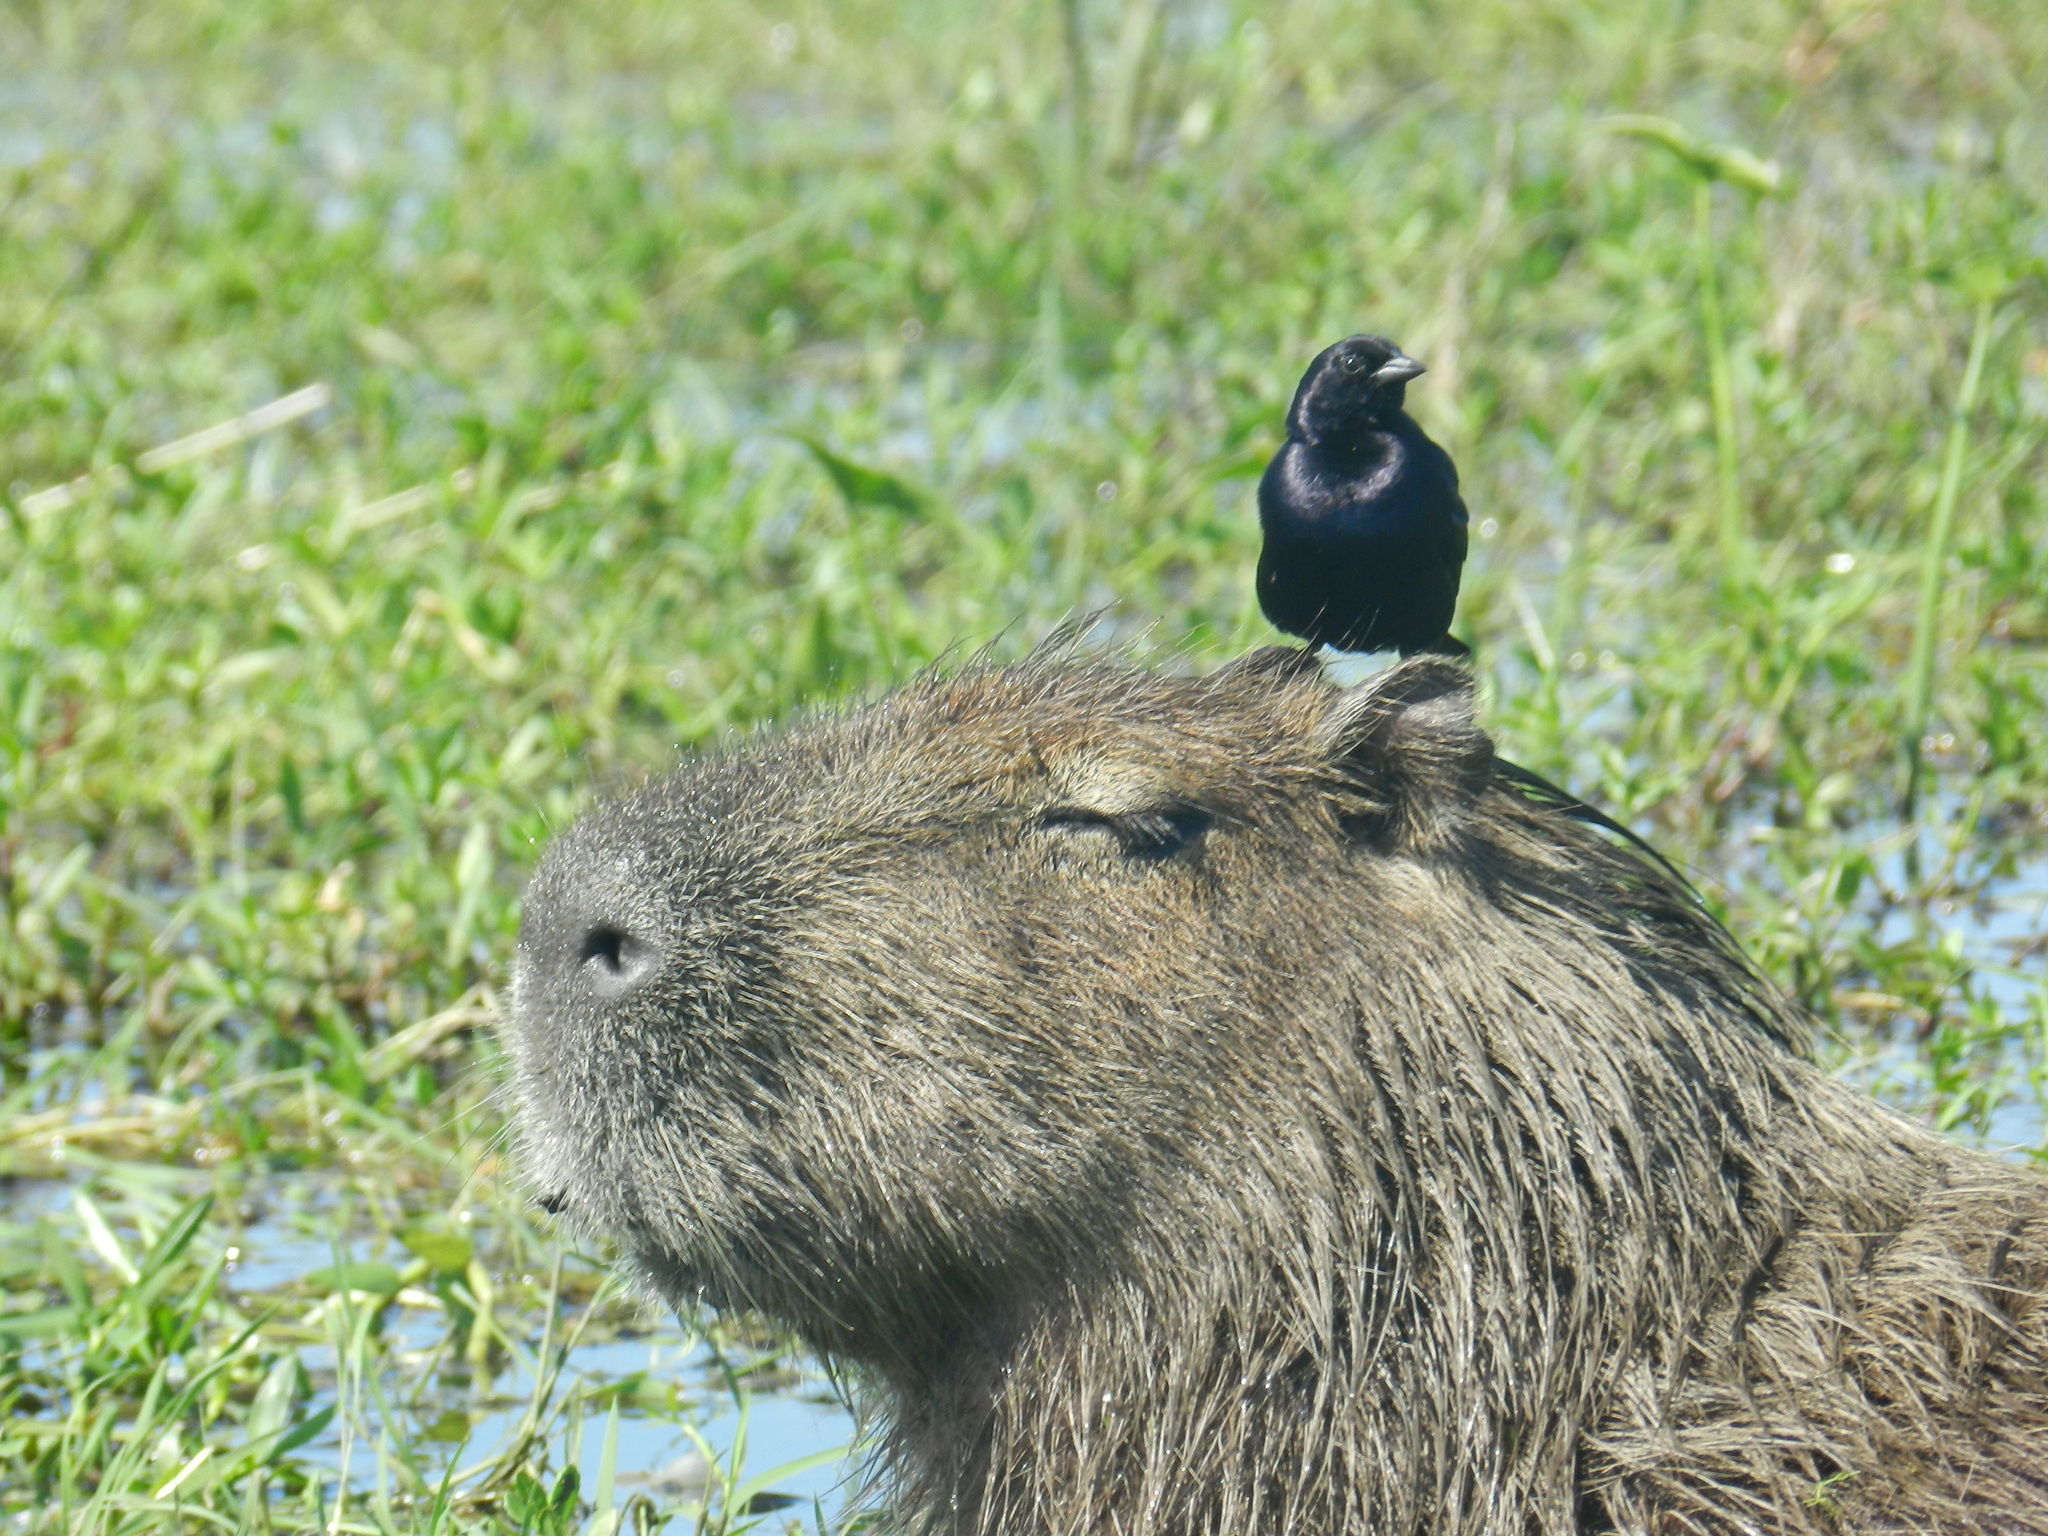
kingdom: Animalia
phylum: Chordata
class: Aves
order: Passeriformes
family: Icteridae
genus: Molothrus
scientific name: Molothrus bonariensis
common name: Shiny cowbird
